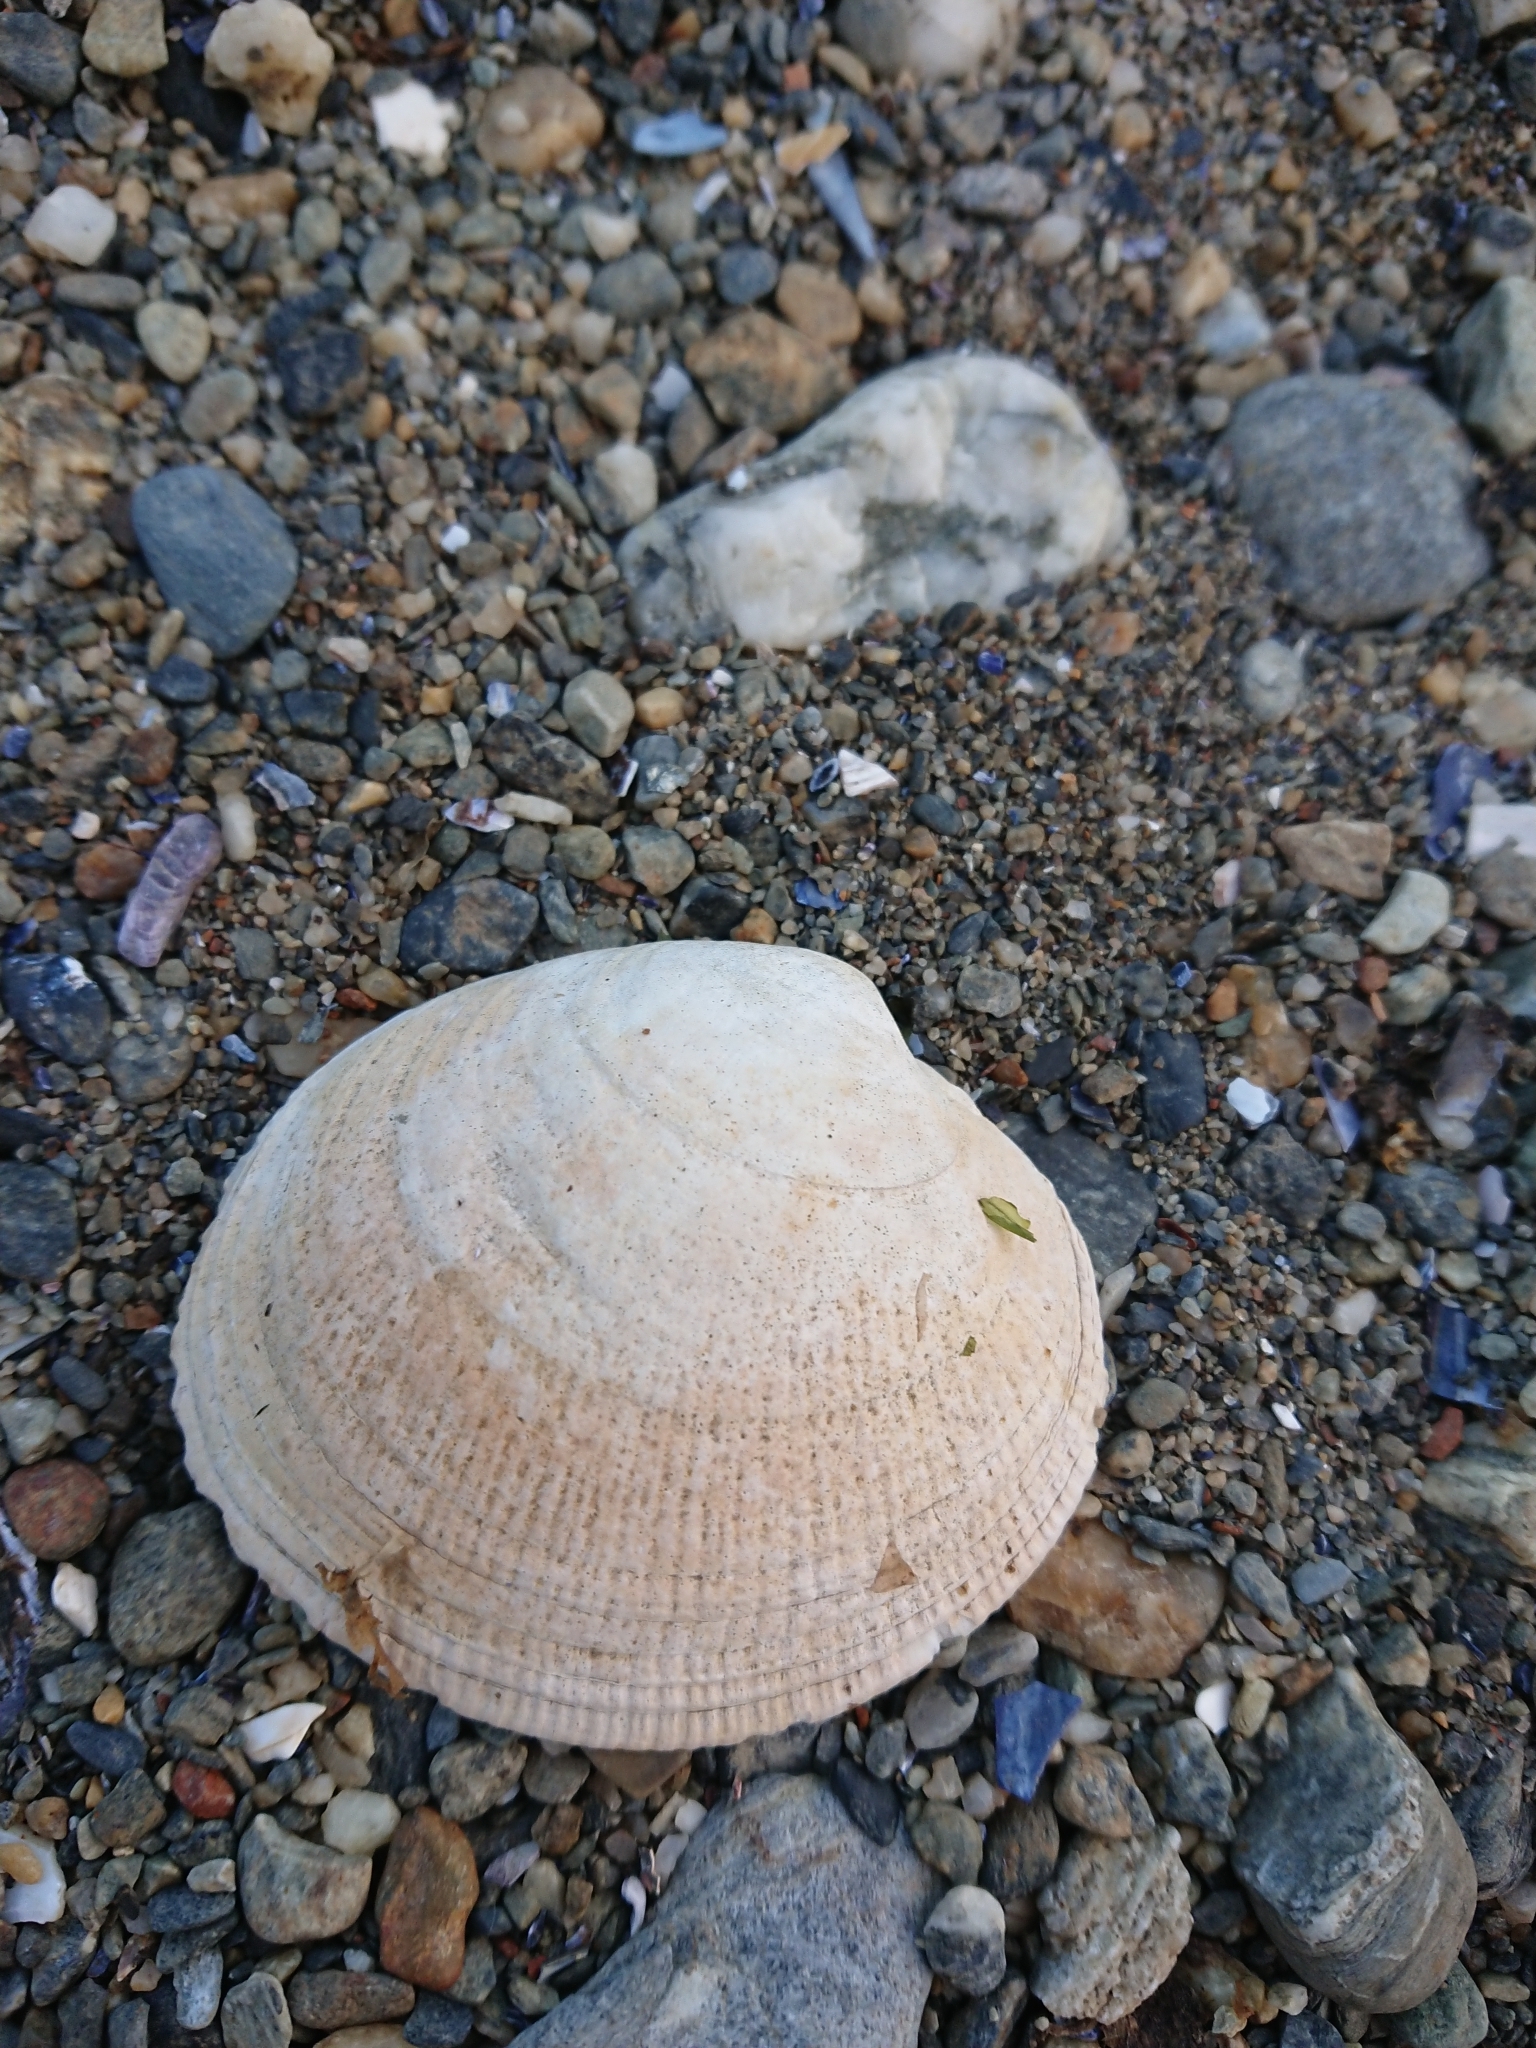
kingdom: Animalia
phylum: Mollusca
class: Bivalvia
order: Venerida
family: Veneridae
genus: Ameghinomya
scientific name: Ameghinomya antiqua
